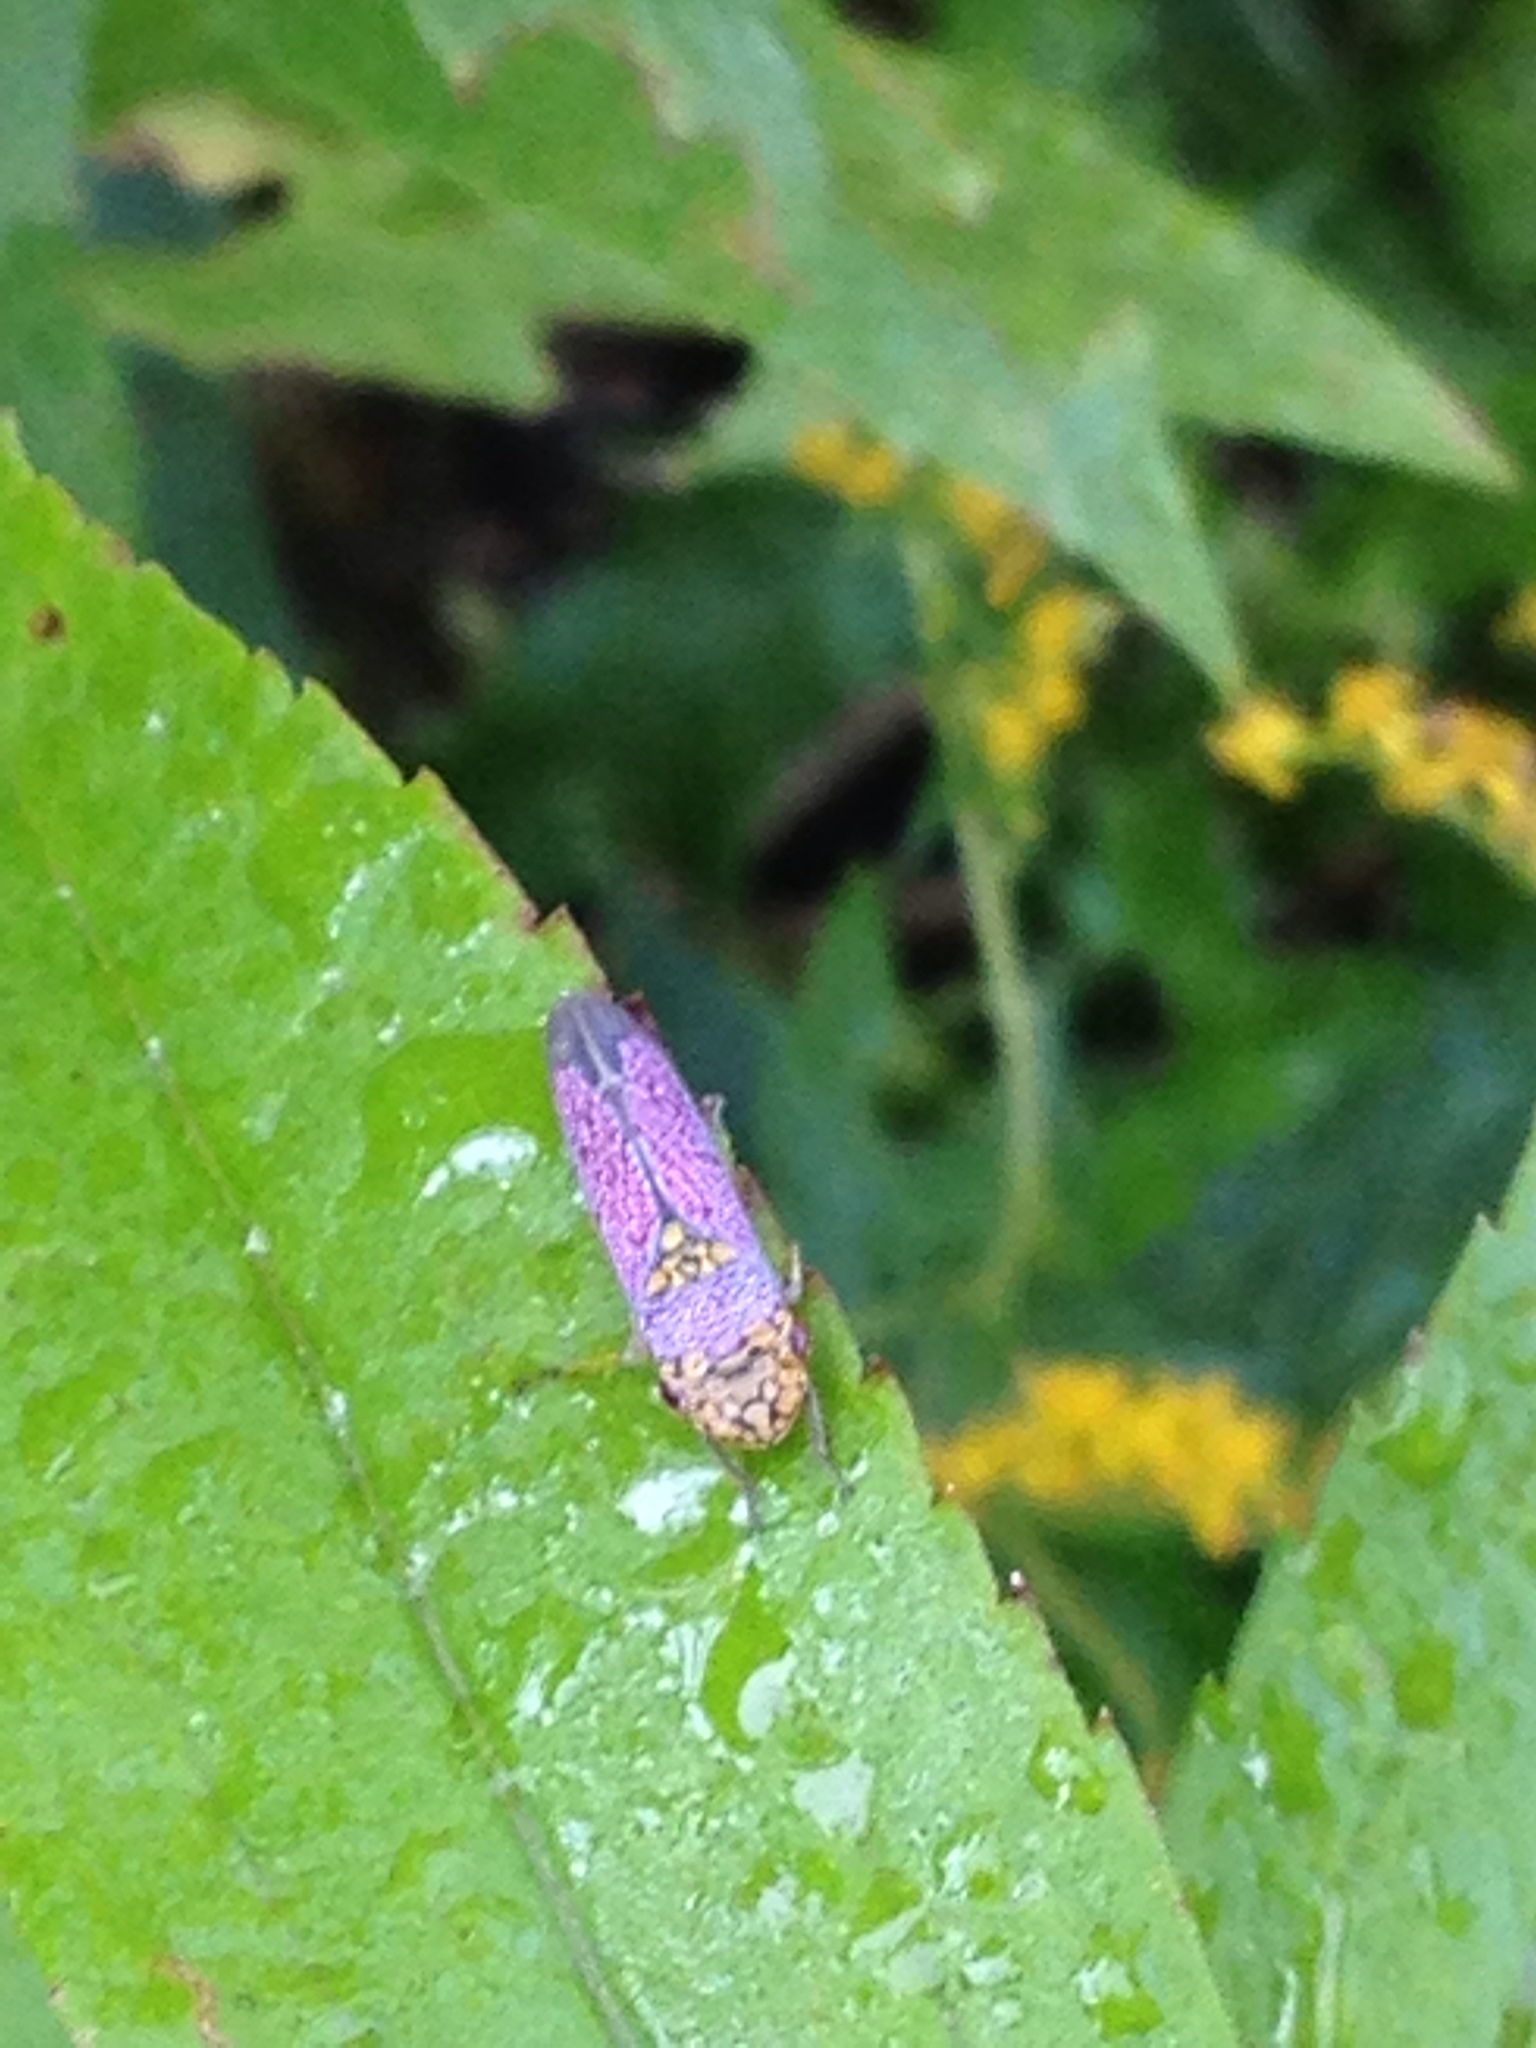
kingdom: Animalia
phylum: Arthropoda
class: Insecta
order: Hemiptera
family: Cicadellidae
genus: Oncometopia
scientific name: Oncometopia orbona
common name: Broad-headed sharpshooter
